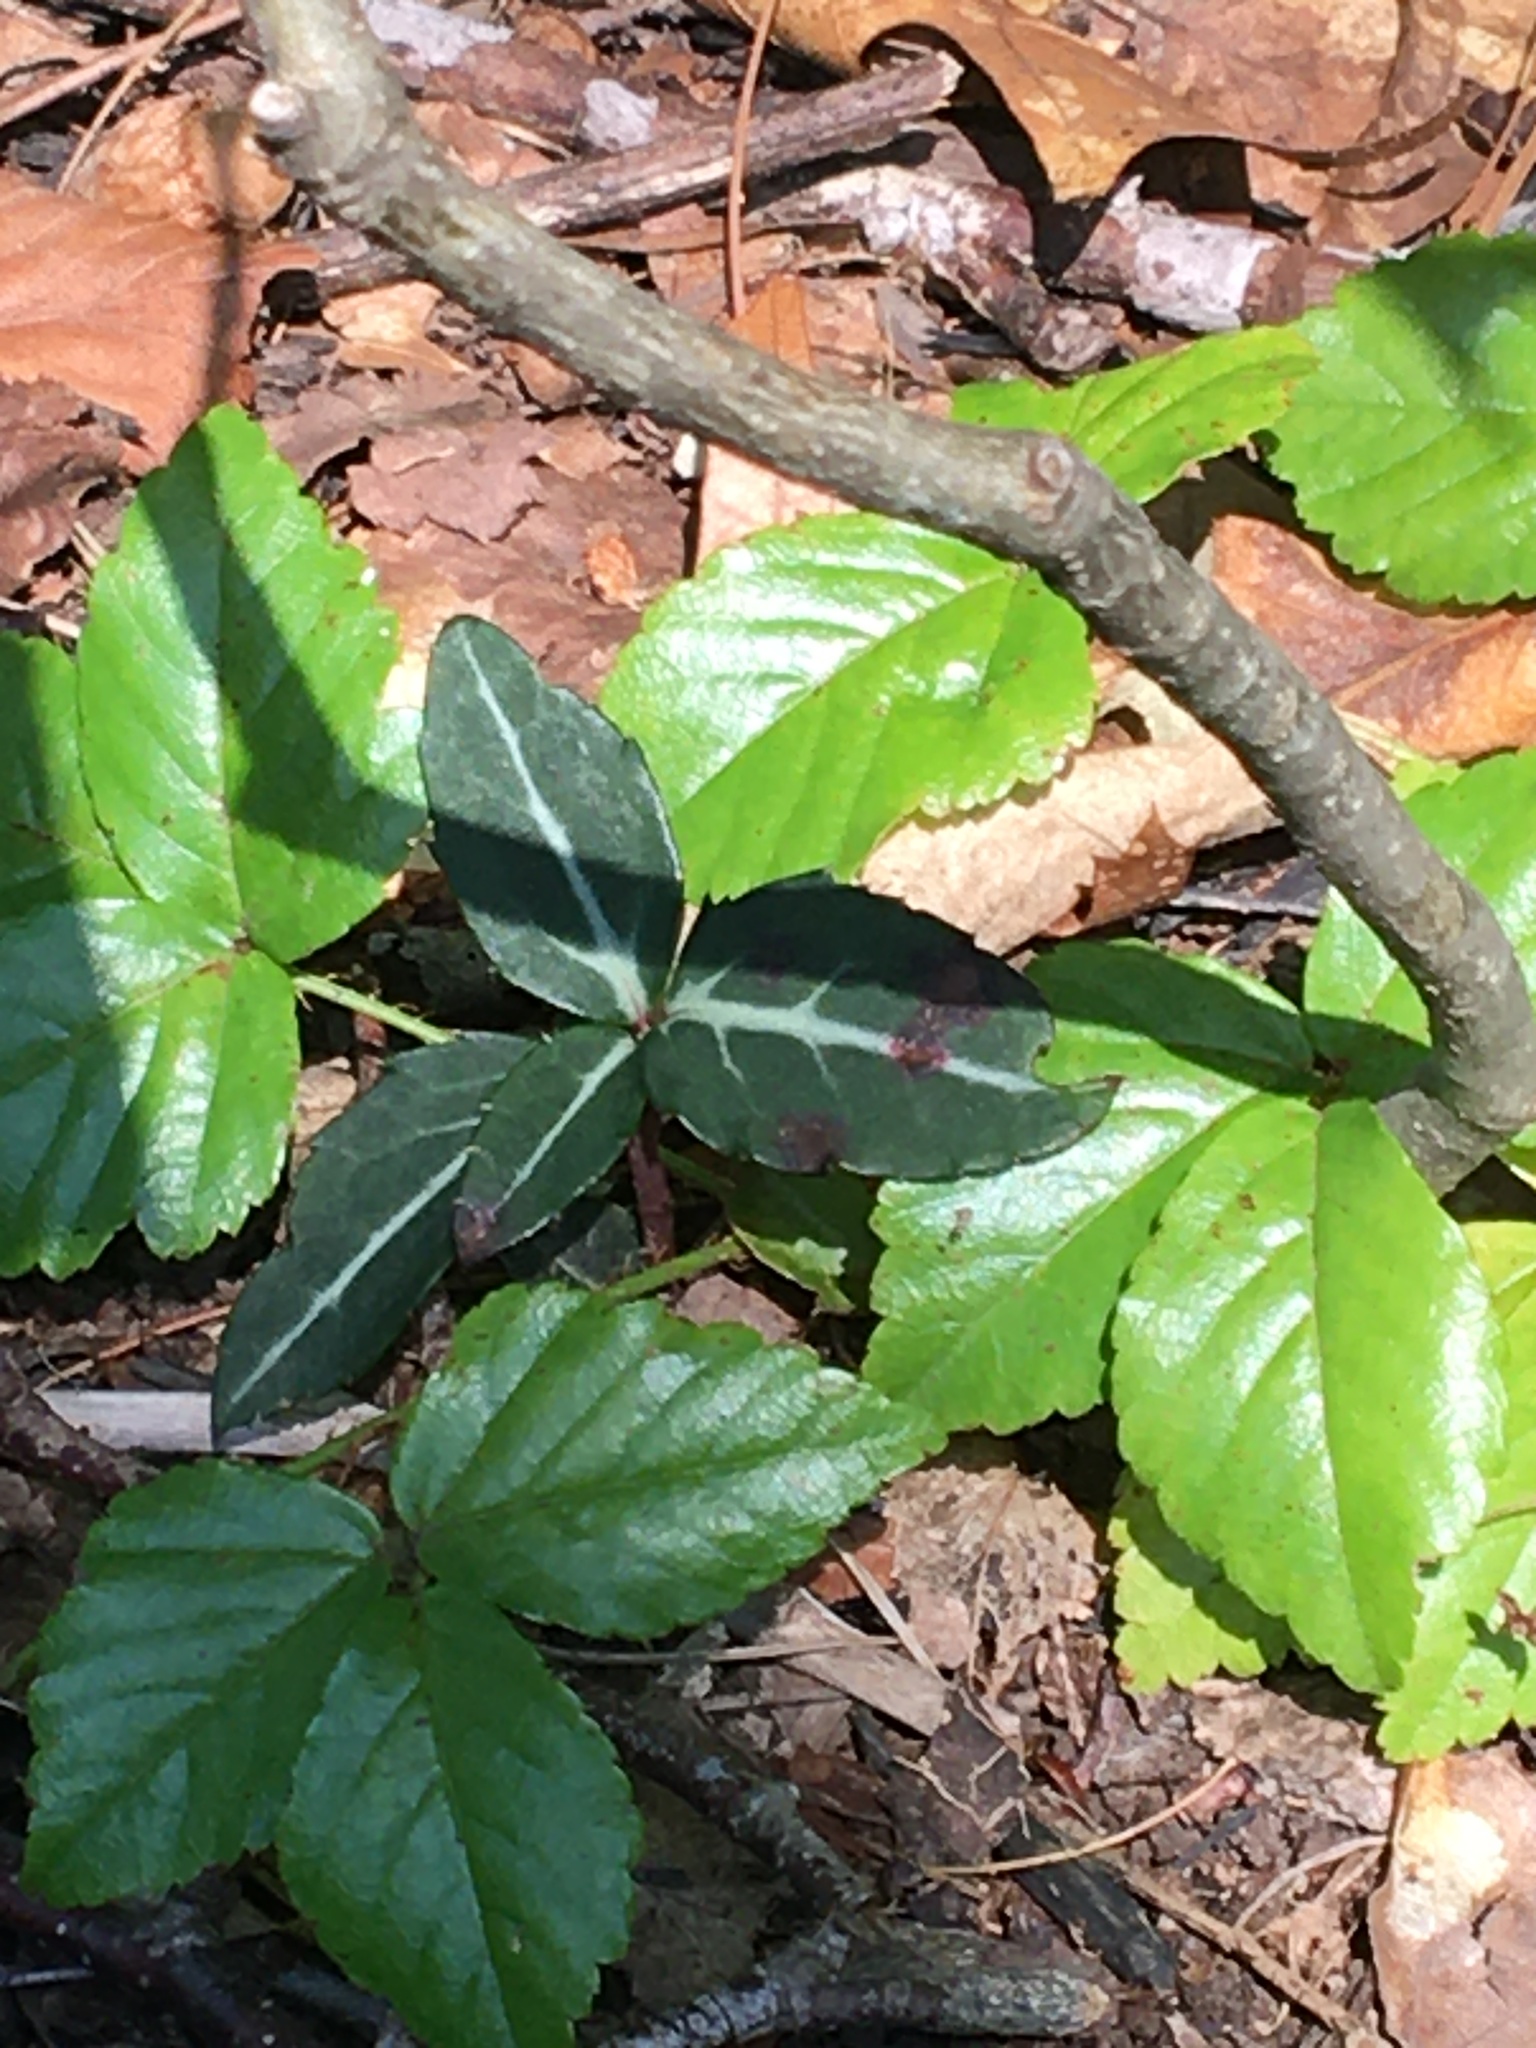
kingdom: Plantae
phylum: Tracheophyta
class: Magnoliopsida
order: Ericales
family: Ericaceae
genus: Chimaphila
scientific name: Chimaphila maculata
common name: Spotted pipsissewa
